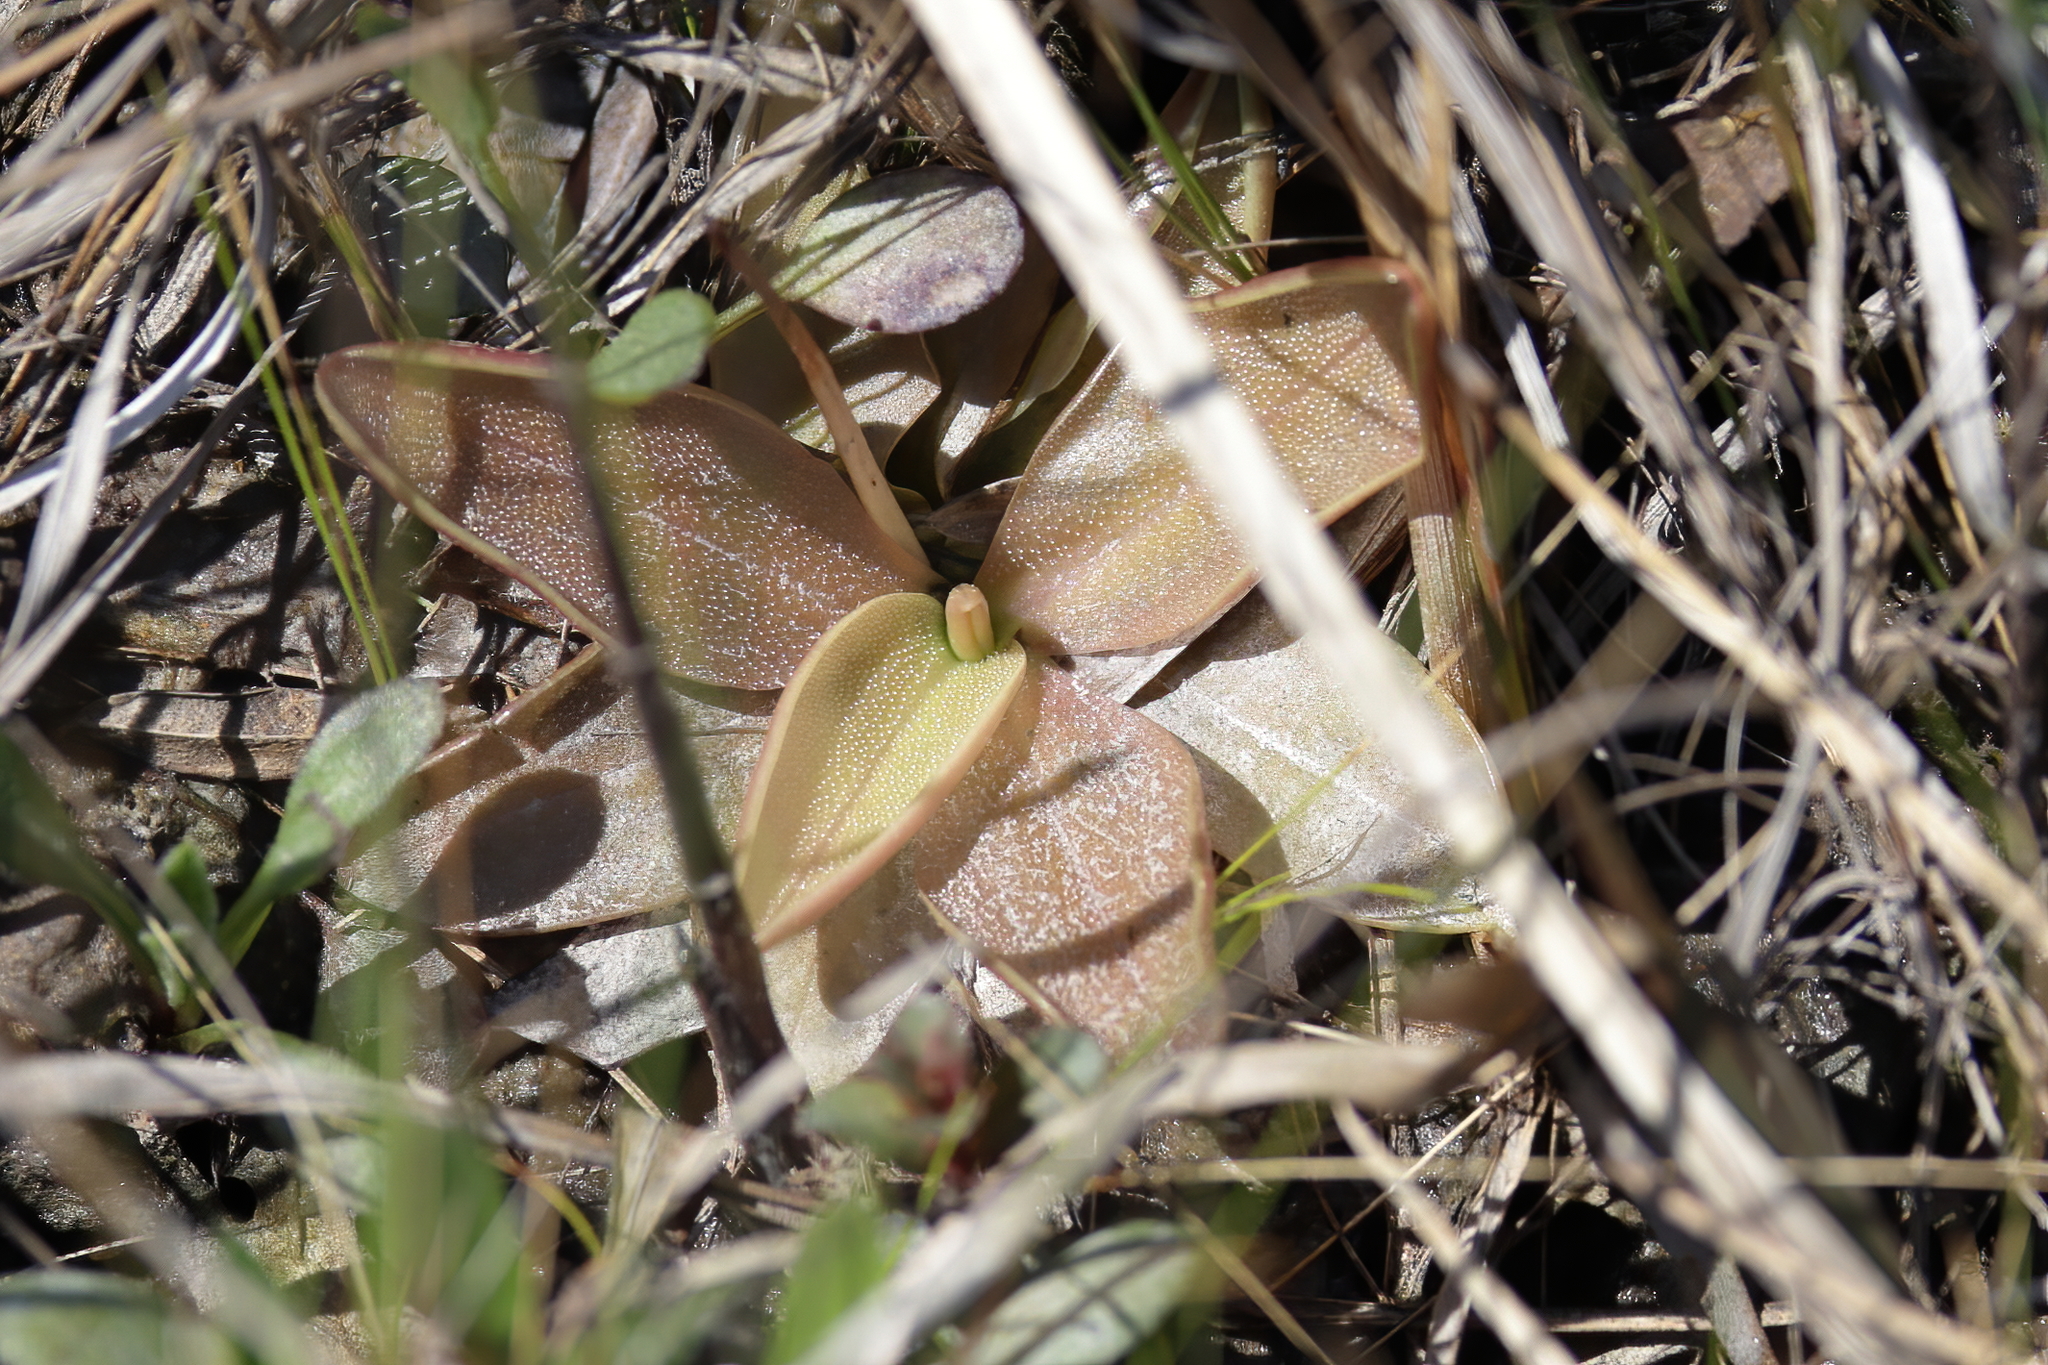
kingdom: Plantae
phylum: Tracheophyta
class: Magnoliopsida
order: Lamiales
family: Lentibulariaceae
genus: Pinguicula
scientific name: Pinguicula planifolia
